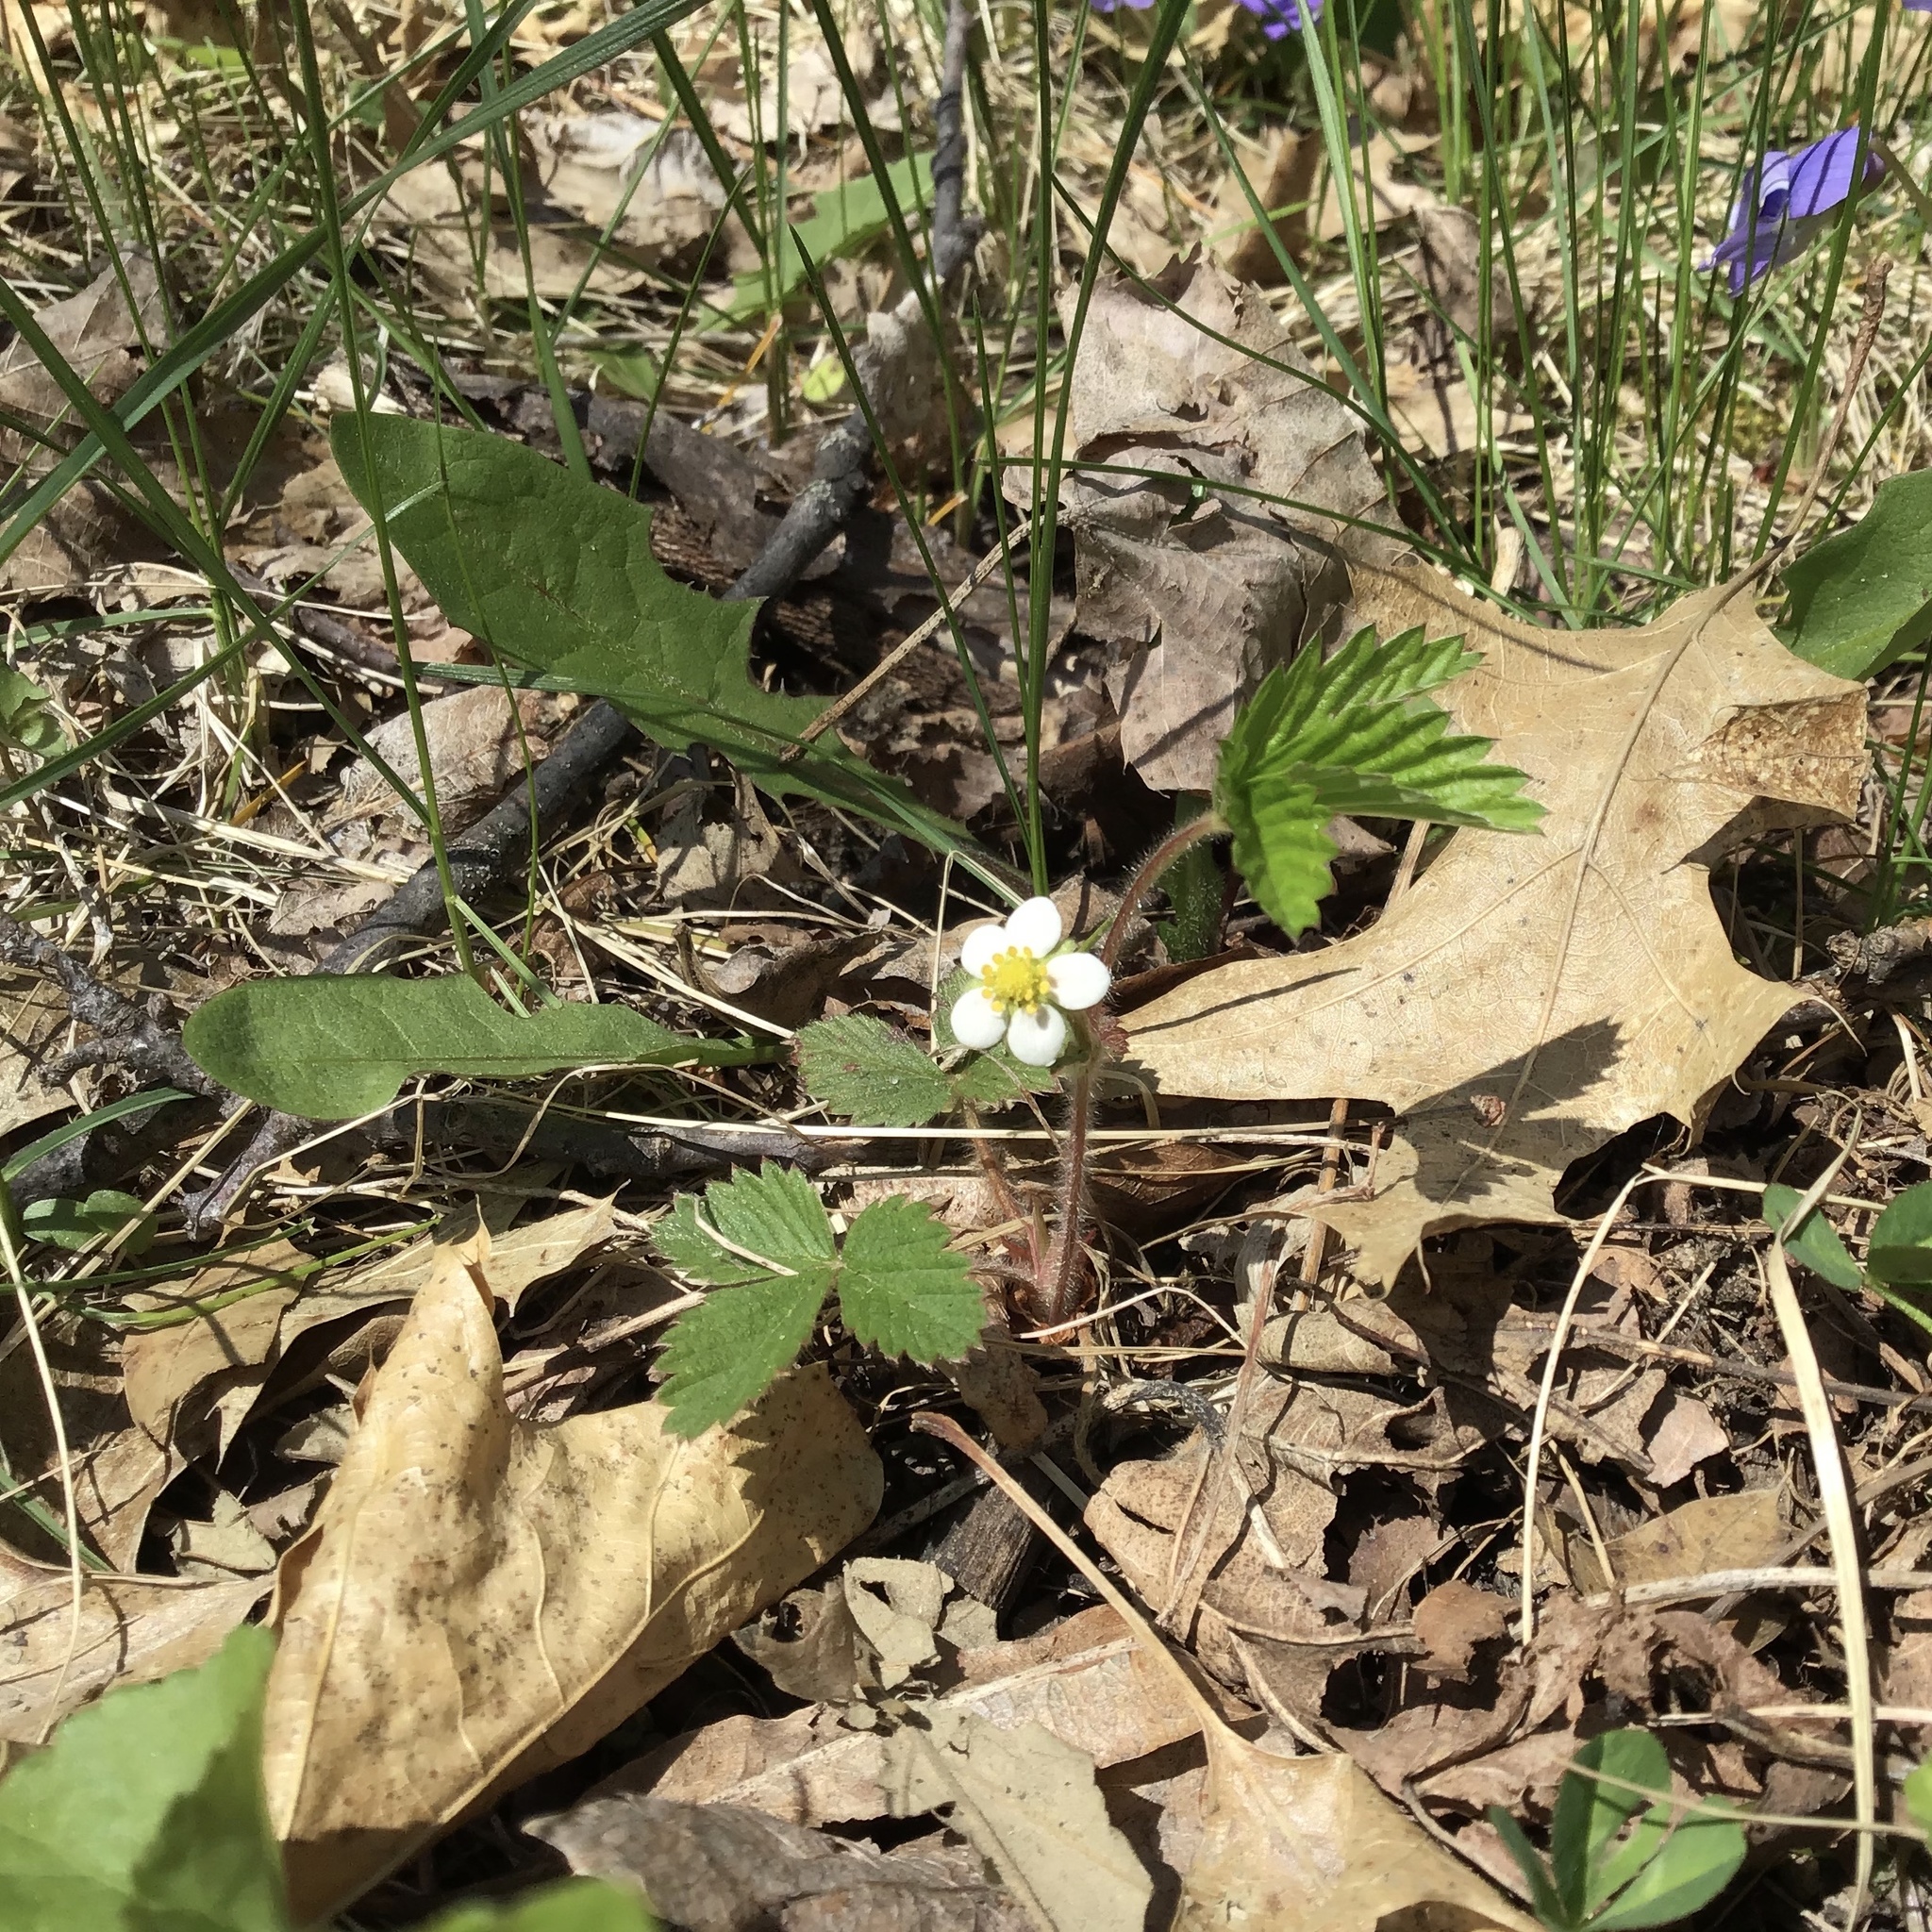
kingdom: Plantae
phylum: Tracheophyta
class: Magnoliopsida
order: Rosales
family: Rosaceae
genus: Fragaria
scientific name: Fragaria vesca
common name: Wild strawberry
